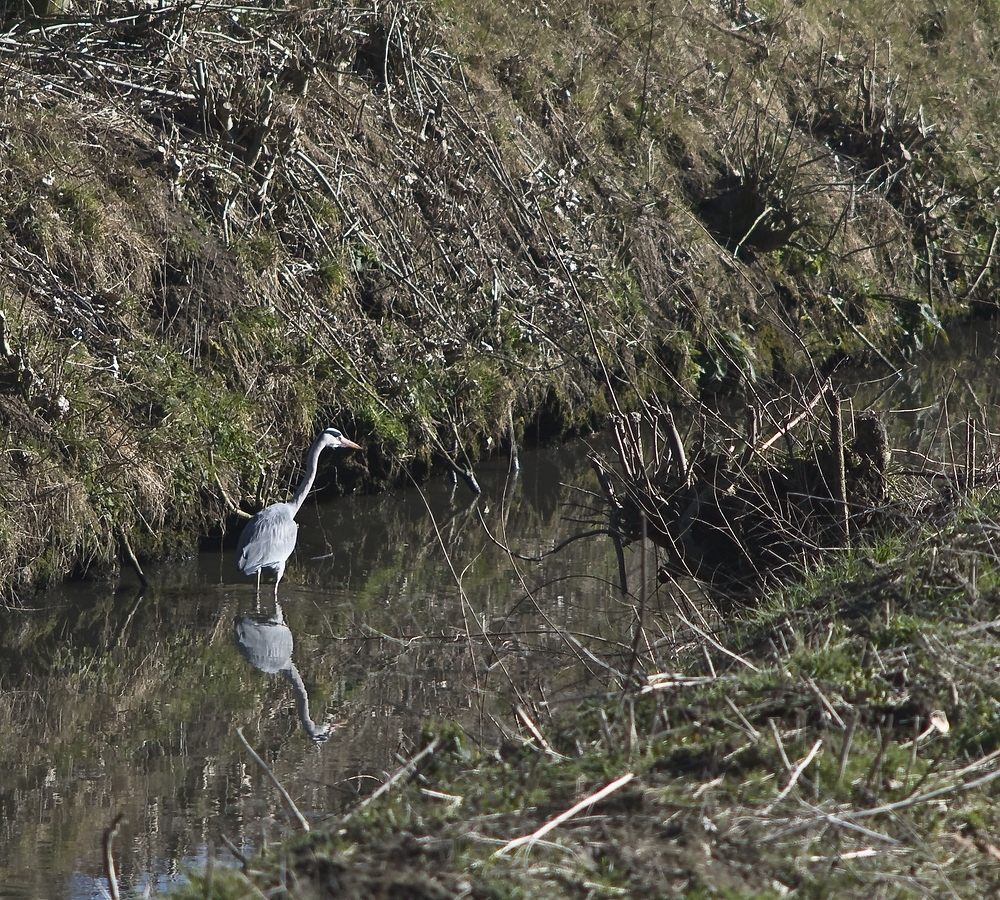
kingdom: Animalia
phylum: Chordata
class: Aves
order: Pelecaniformes
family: Ardeidae
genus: Ardea
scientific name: Ardea cinerea
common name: Grey heron
